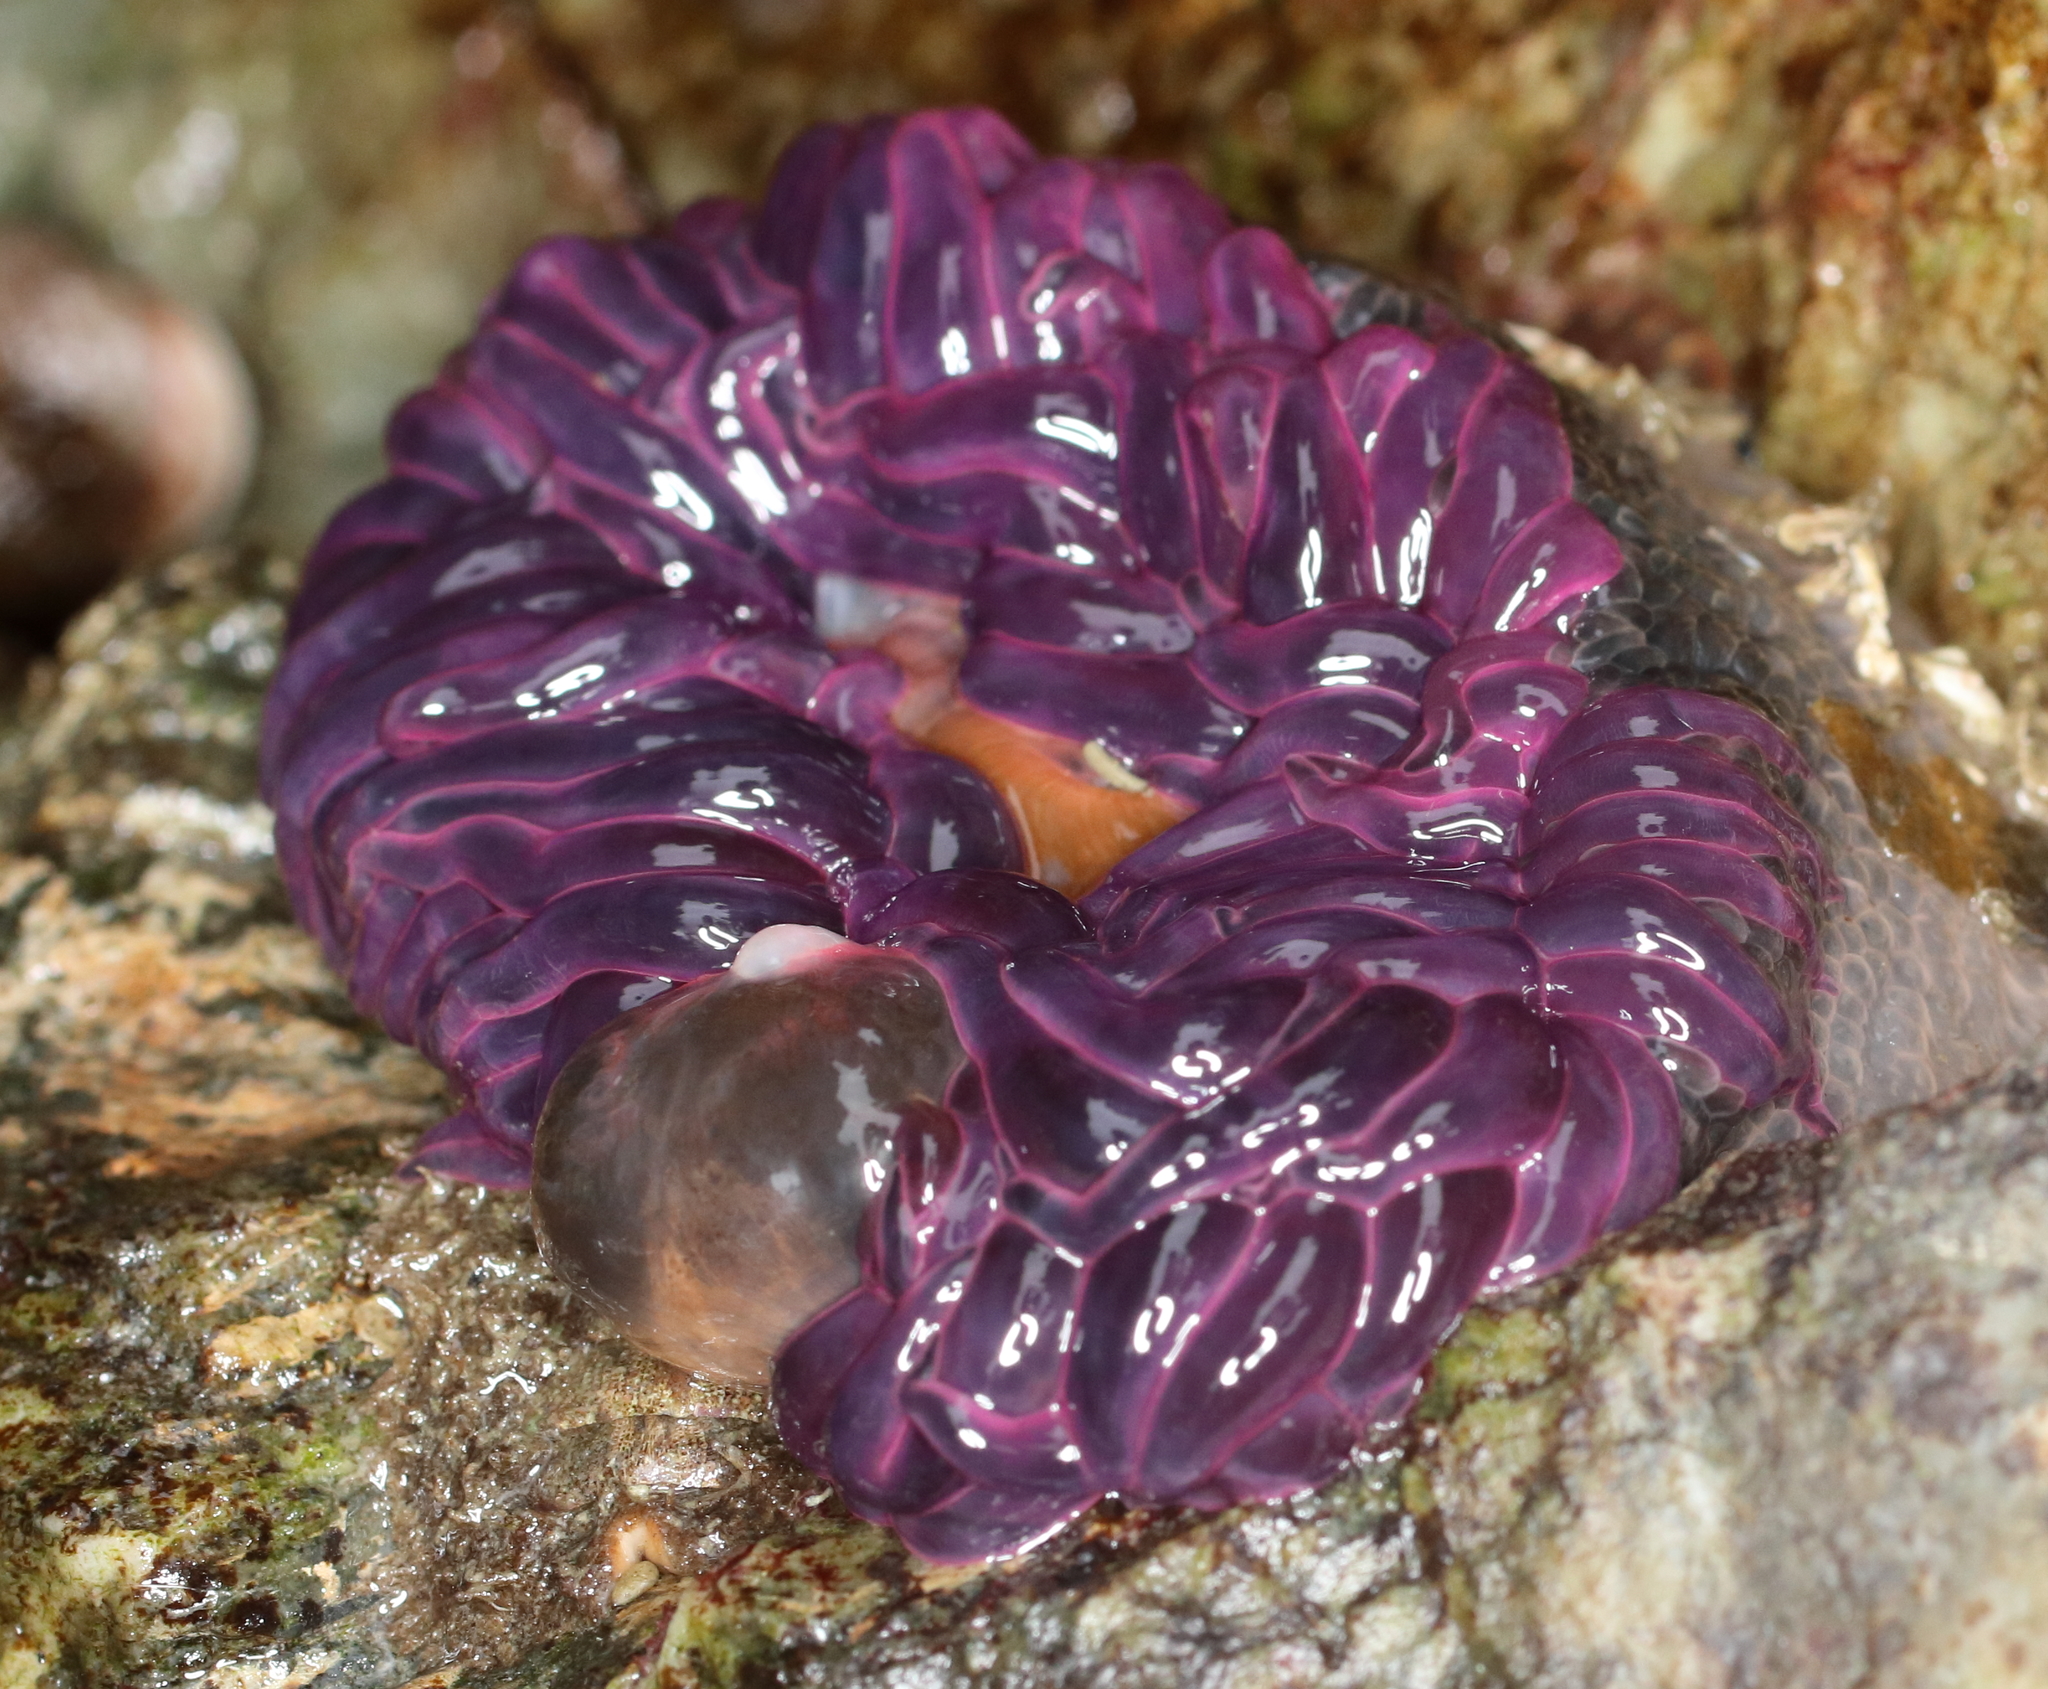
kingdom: Animalia
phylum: Cnidaria
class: Anthozoa
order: Actiniaria
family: Actiniidae
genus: Anthopleura
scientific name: Anthopleura artemisia
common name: Buried sea anemone
